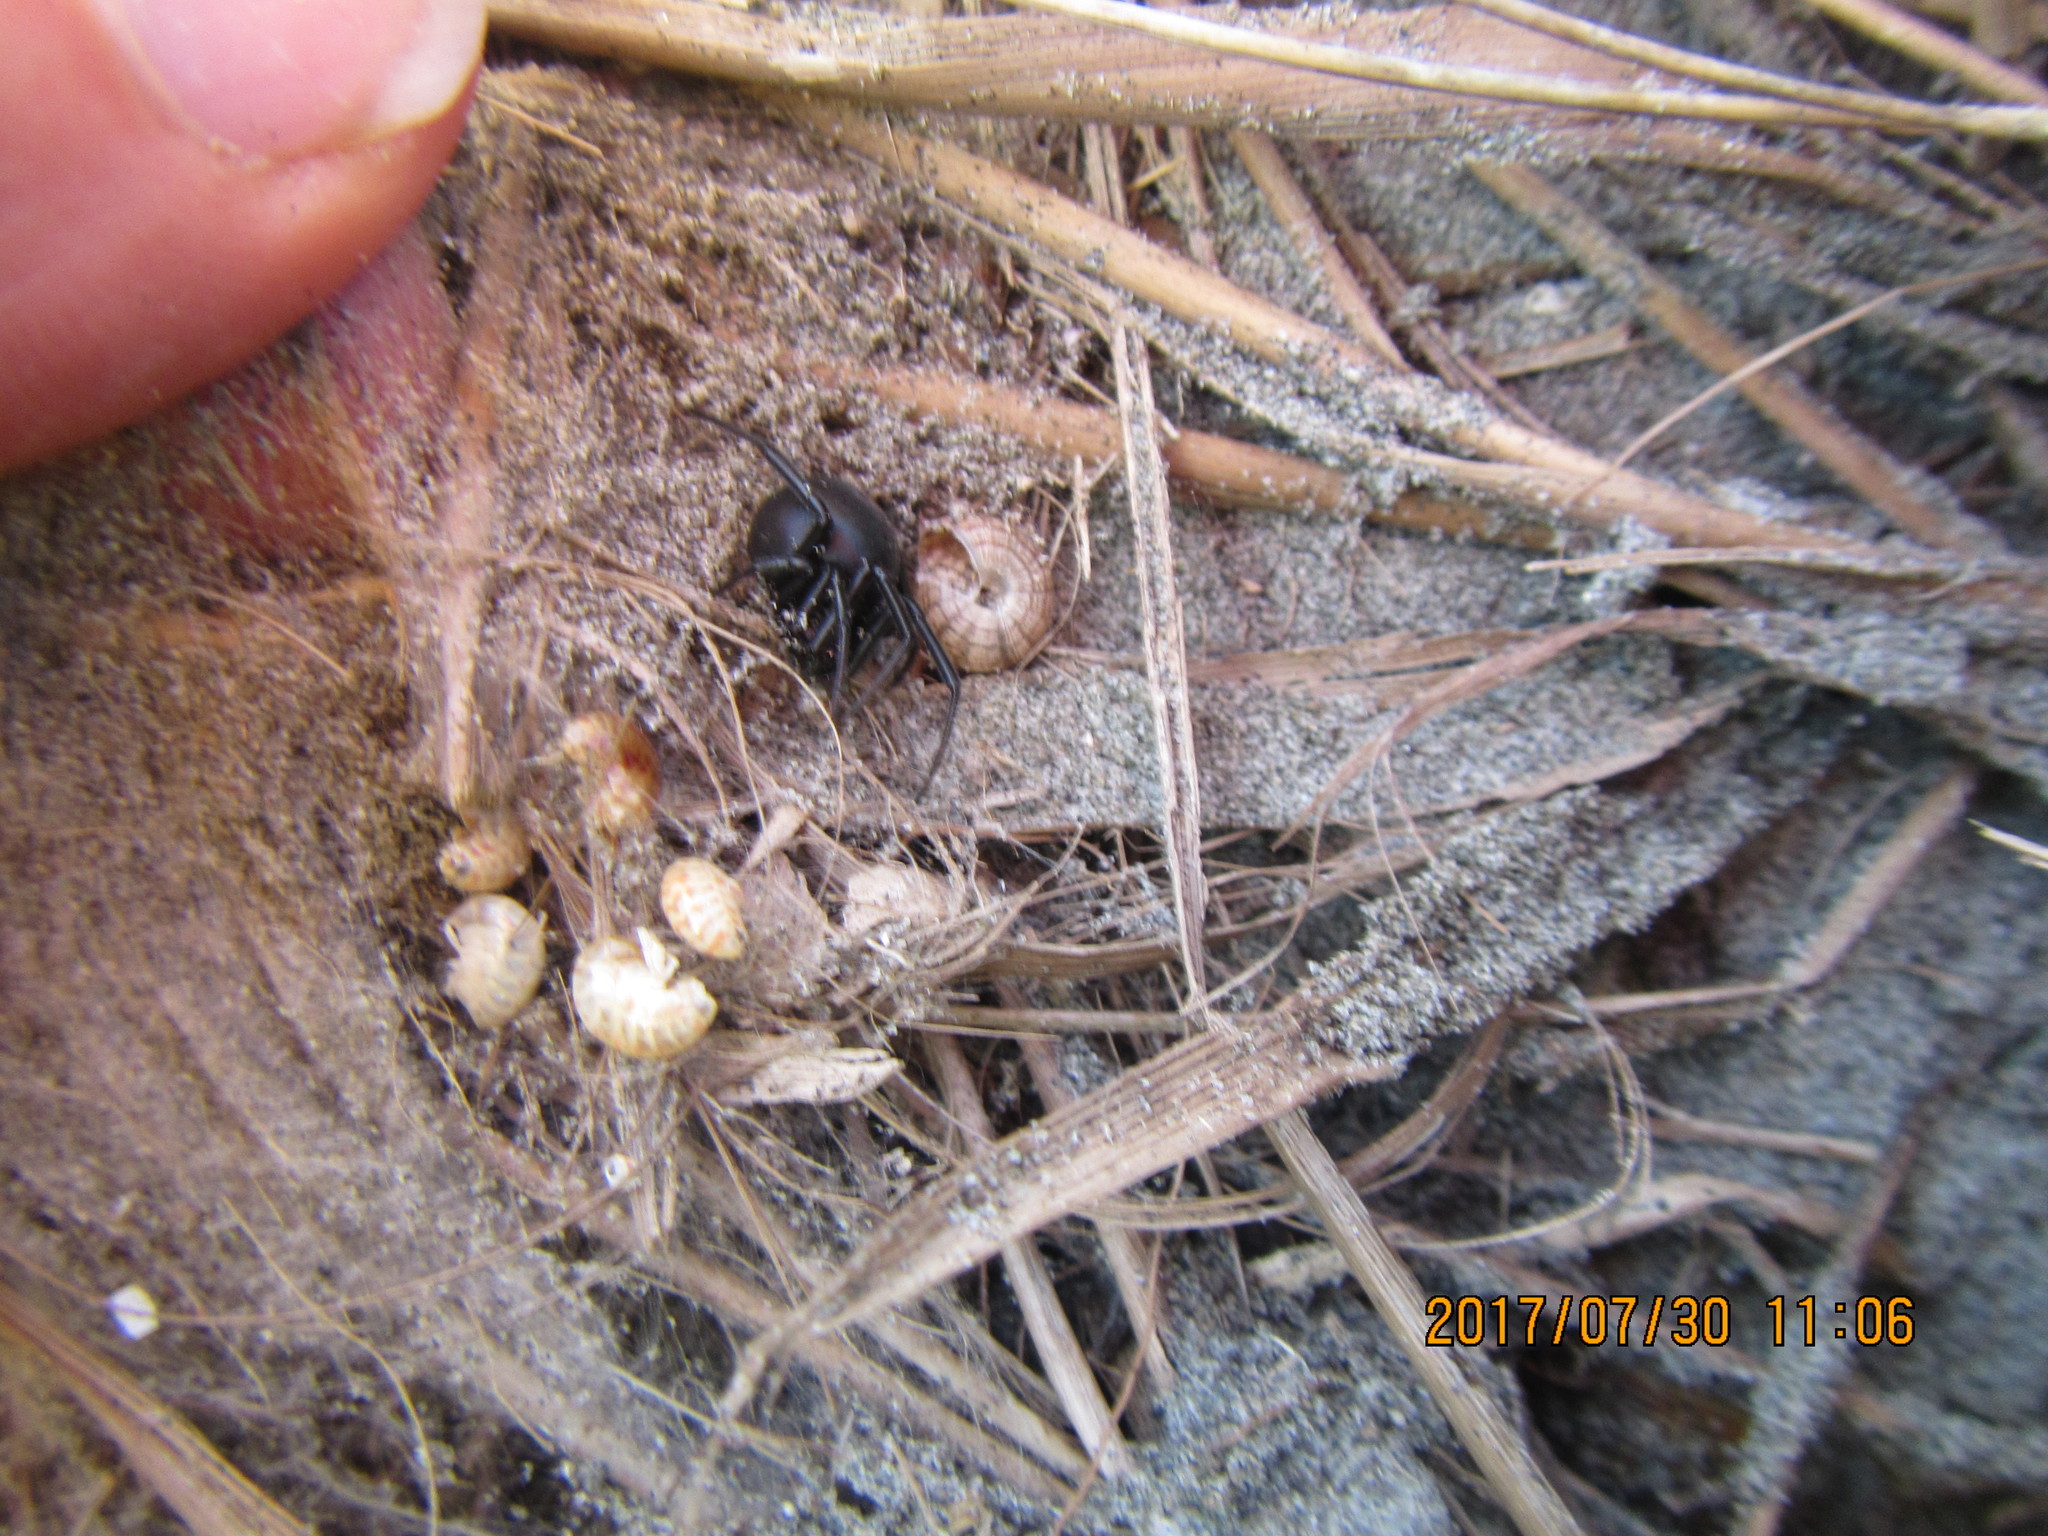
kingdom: Animalia
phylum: Arthropoda
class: Arachnida
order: Araneae
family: Theridiidae
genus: Latrodectus
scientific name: Latrodectus katipo
